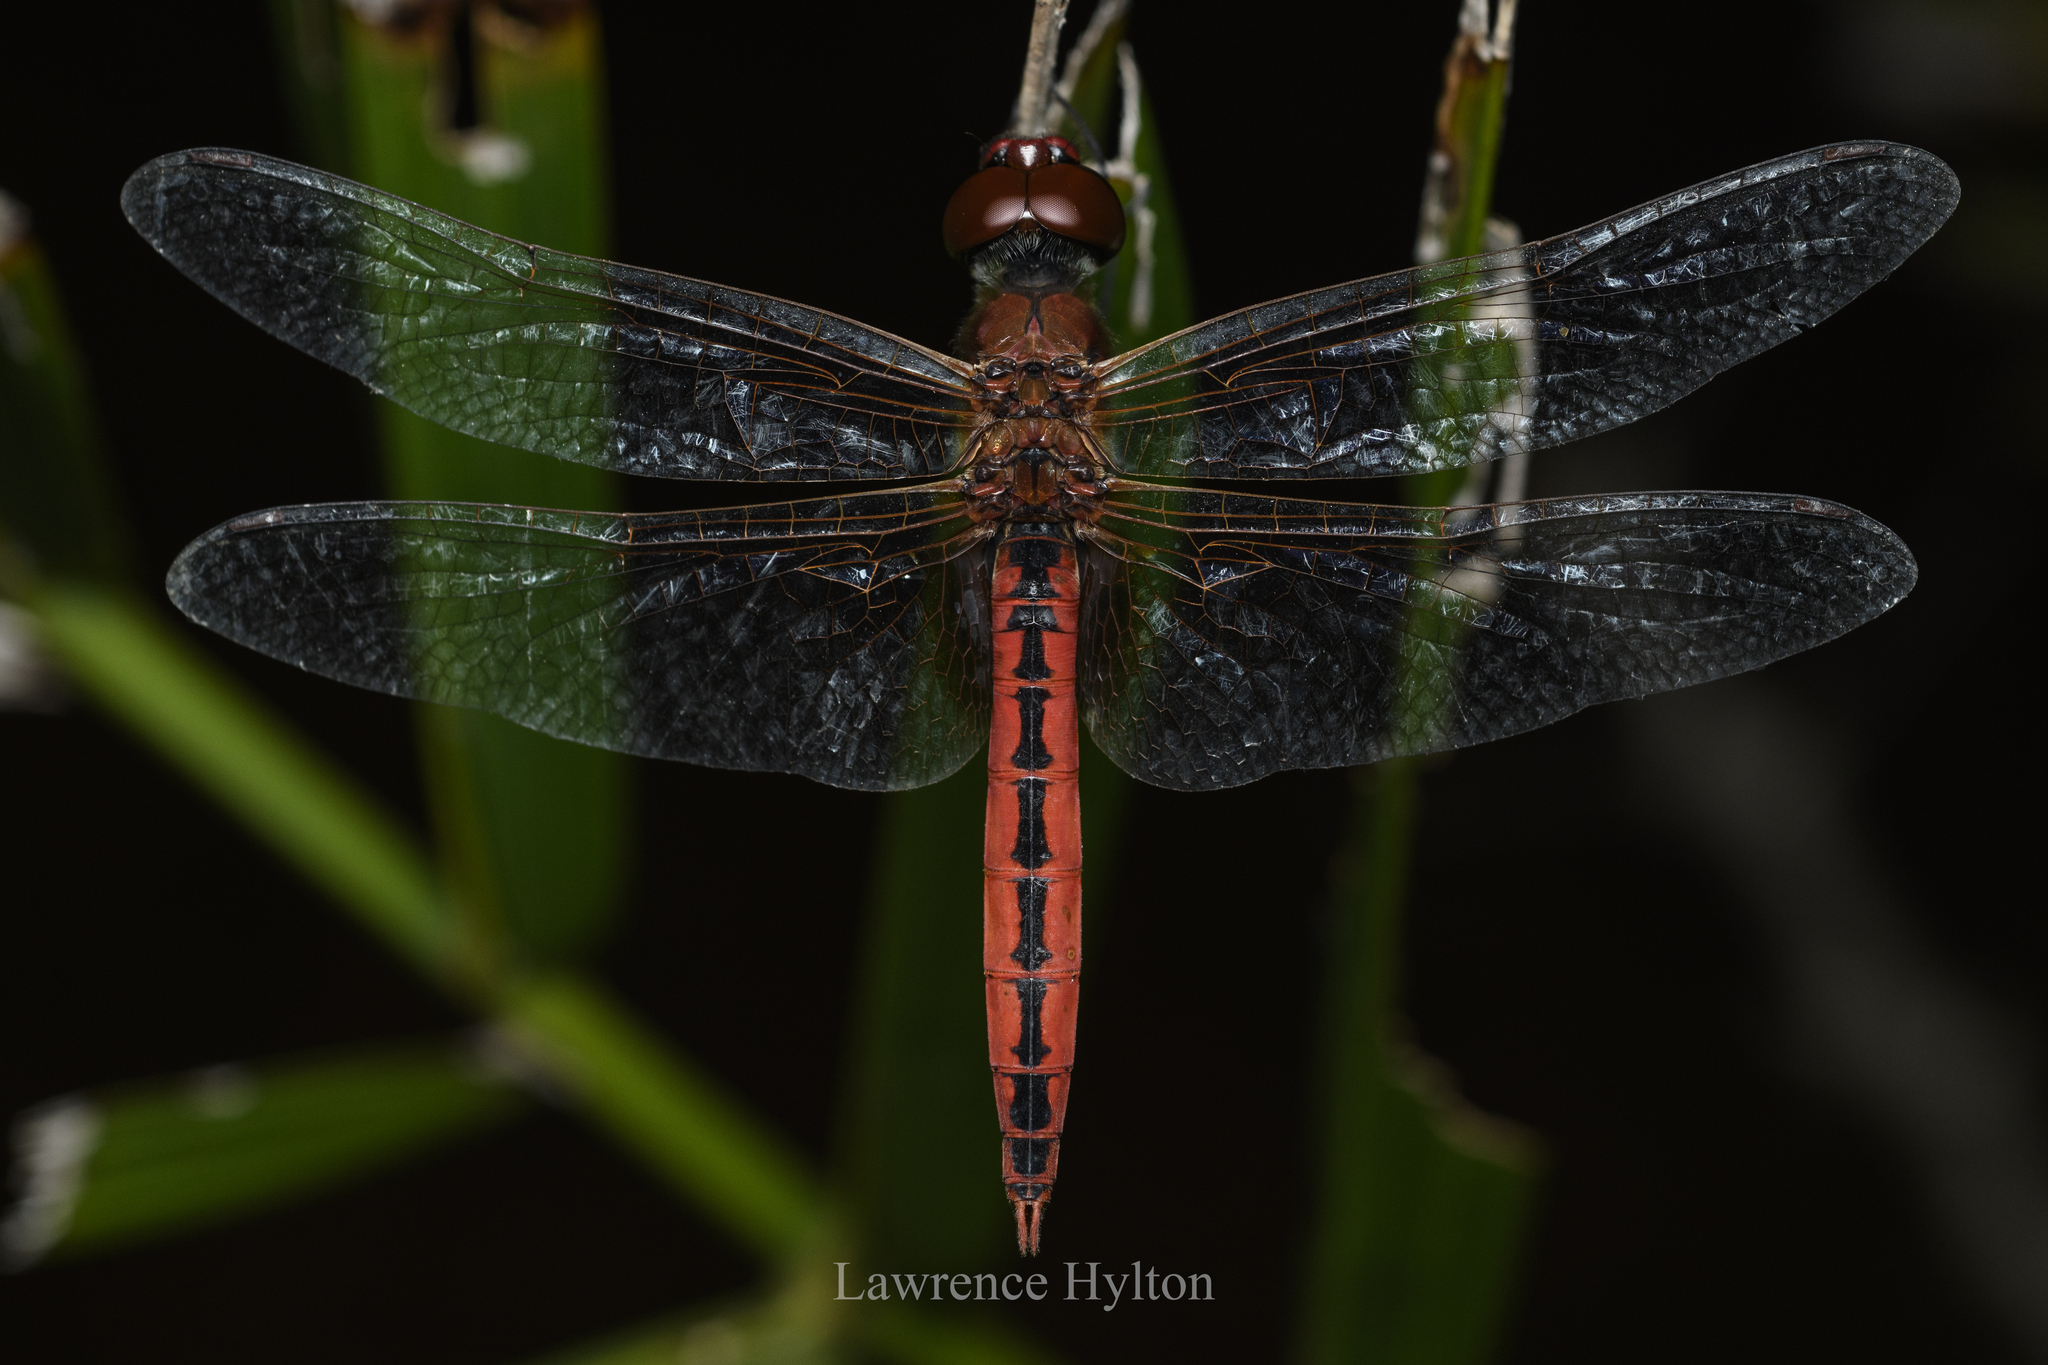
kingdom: Animalia
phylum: Arthropoda
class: Insecta
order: Odonata
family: Libellulidae
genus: Macrodiplax
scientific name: Macrodiplax cora
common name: Coastal glider
